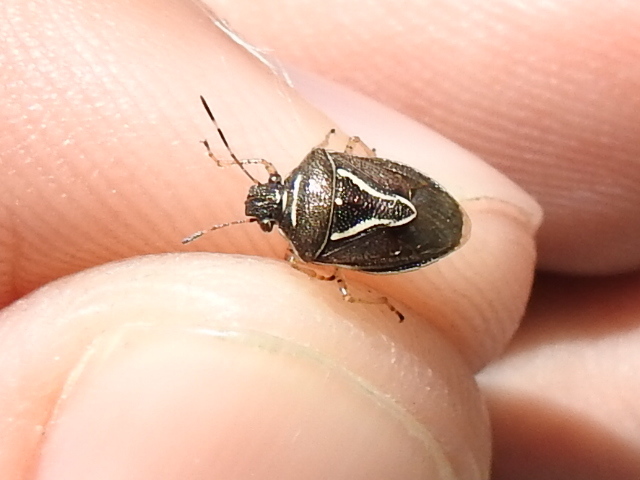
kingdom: Animalia
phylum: Arthropoda
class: Insecta
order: Hemiptera
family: Pentatomidae
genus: Mormidea
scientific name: Mormidea lugens
